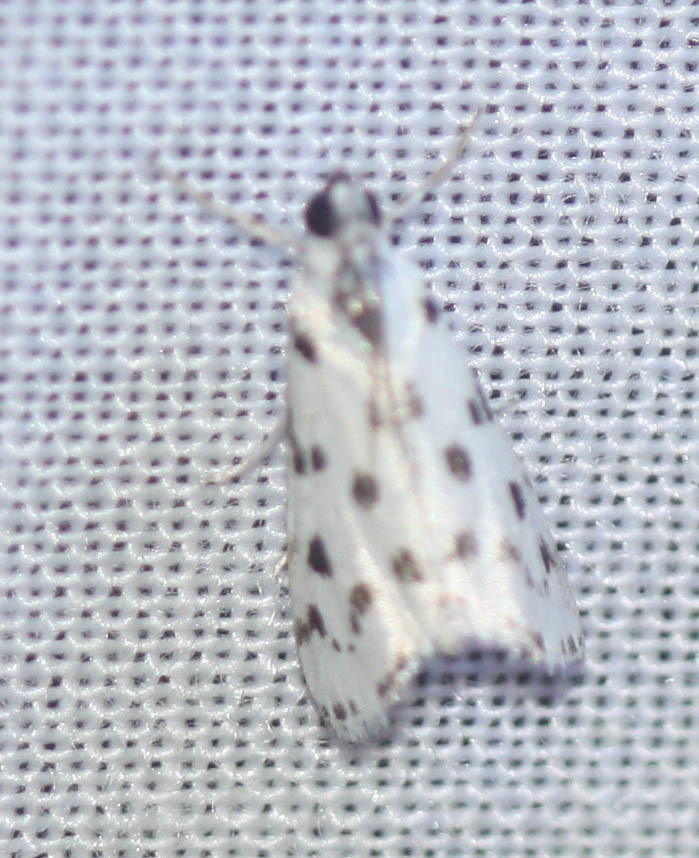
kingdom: Animalia
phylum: Arthropoda
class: Insecta
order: Lepidoptera
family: Crambidae
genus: Eustixia
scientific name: Eustixia pupula
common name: American cabbage pearl
